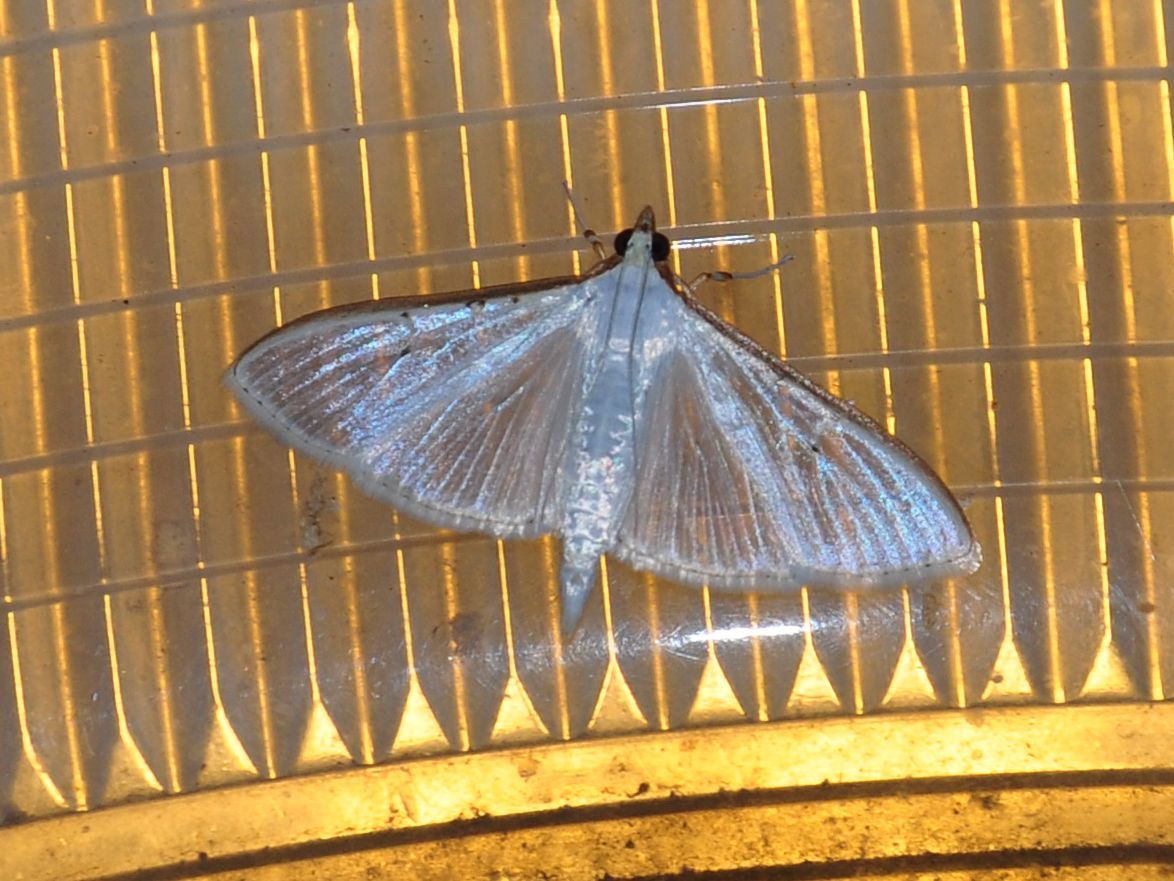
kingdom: Animalia
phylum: Arthropoda
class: Insecta
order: Lepidoptera
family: Crambidae
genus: Palpita
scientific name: Palpita vitrealis
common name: Olive-tree pearl
